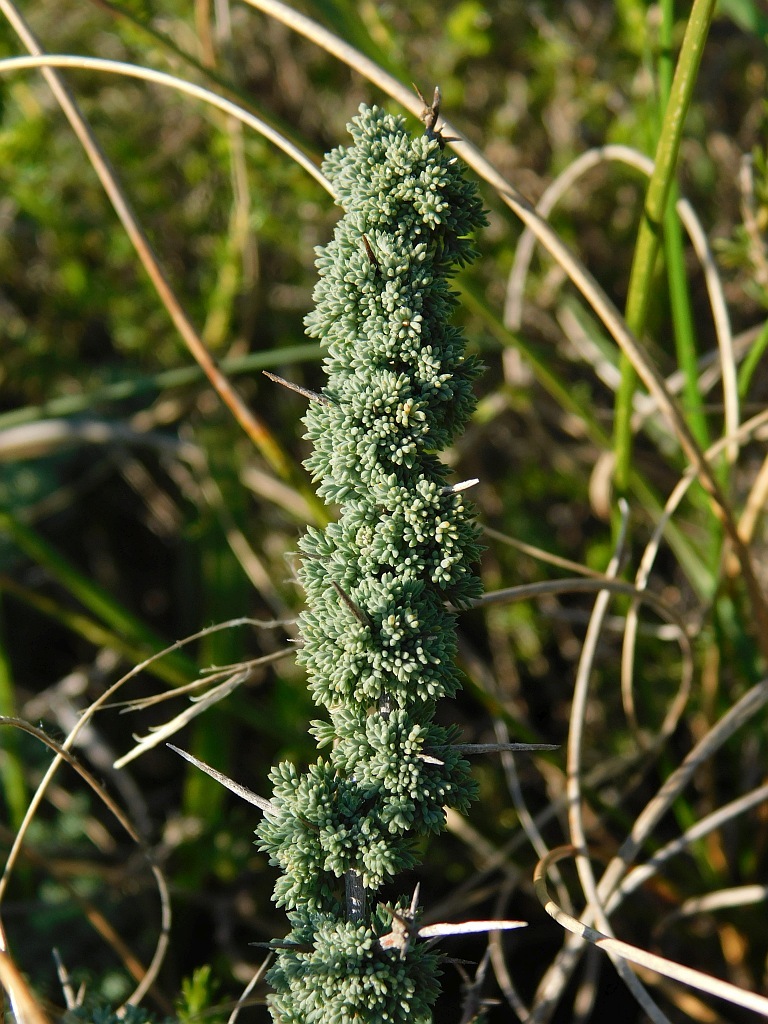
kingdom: Plantae
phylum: Tracheophyta
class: Liliopsida
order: Asparagales
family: Asparagaceae
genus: Asparagus
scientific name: Asparagus capensis
